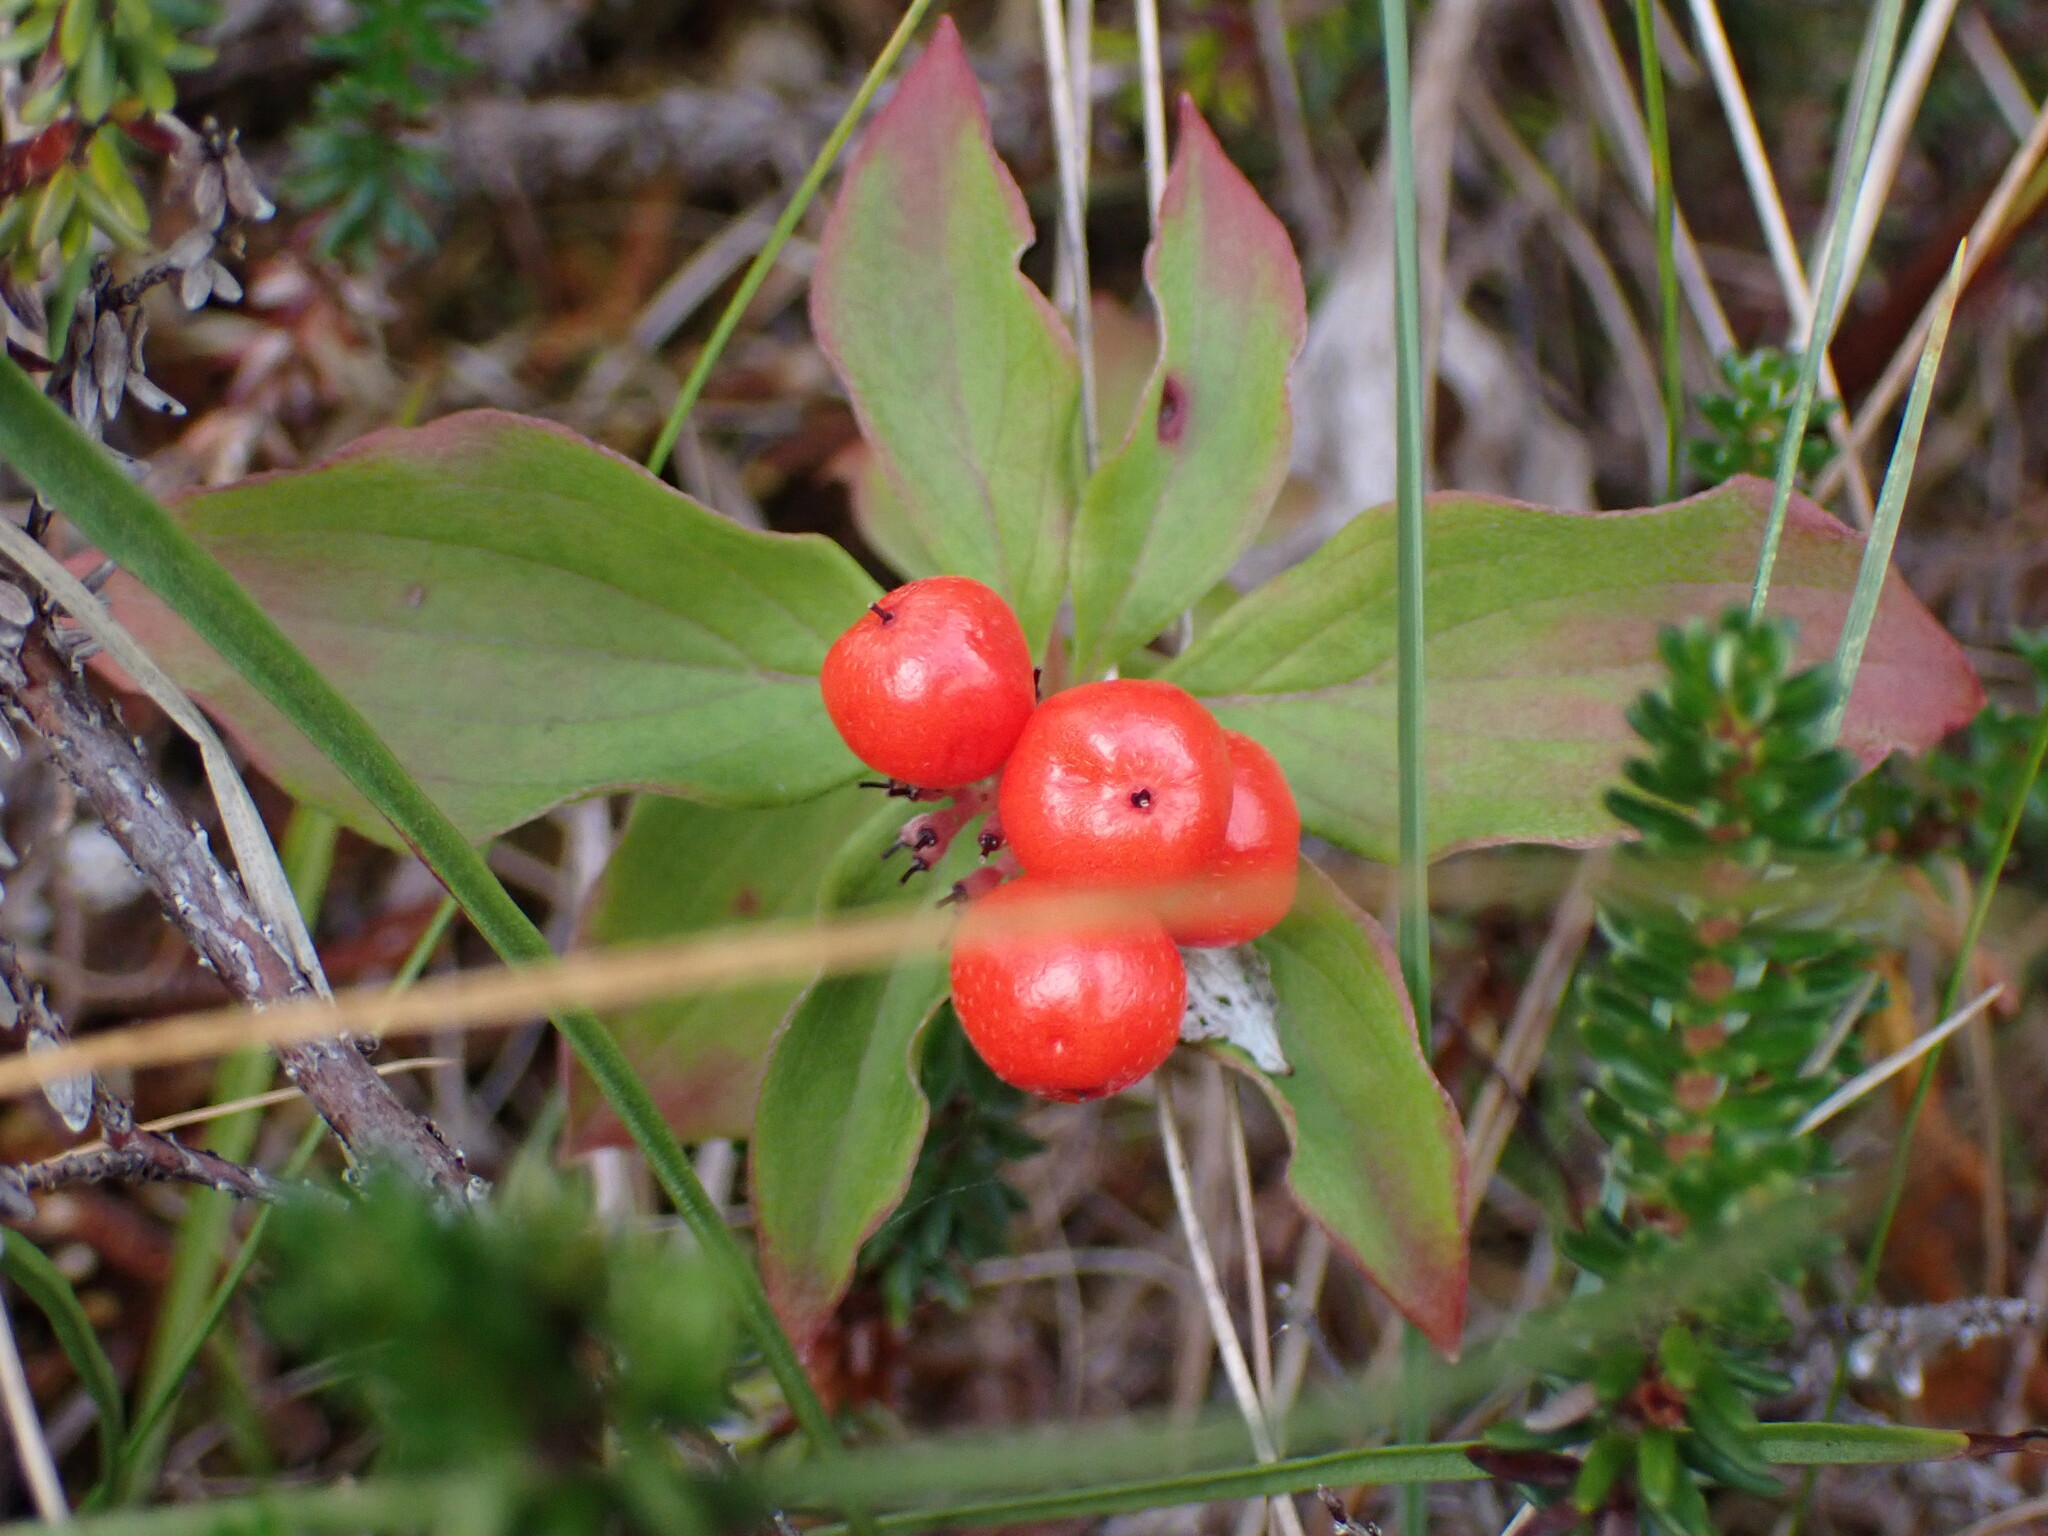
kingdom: Plantae
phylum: Tracheophyta
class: Magnoliopsida
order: Cornales
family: Cornaceae
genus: Cornus
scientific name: Cornus unalaschkensis
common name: Alaska bunchberry
